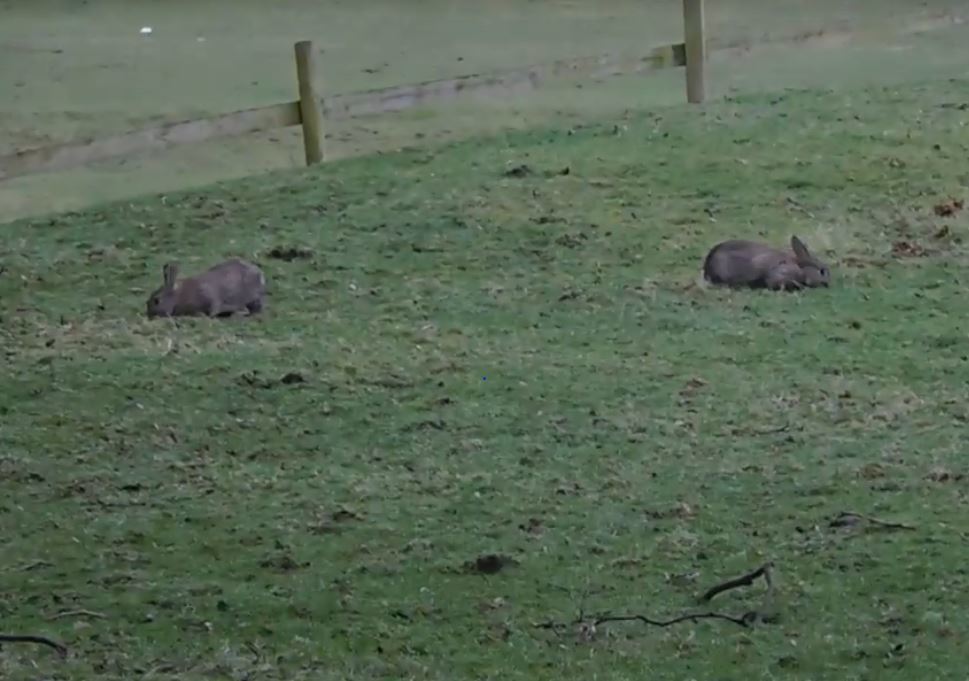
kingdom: Animalia
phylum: Chordata
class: Mammalia
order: Lagomorpha
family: Leporidae
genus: Oryctolagus
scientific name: Oryctolagus cuniculus
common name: European rabbit
